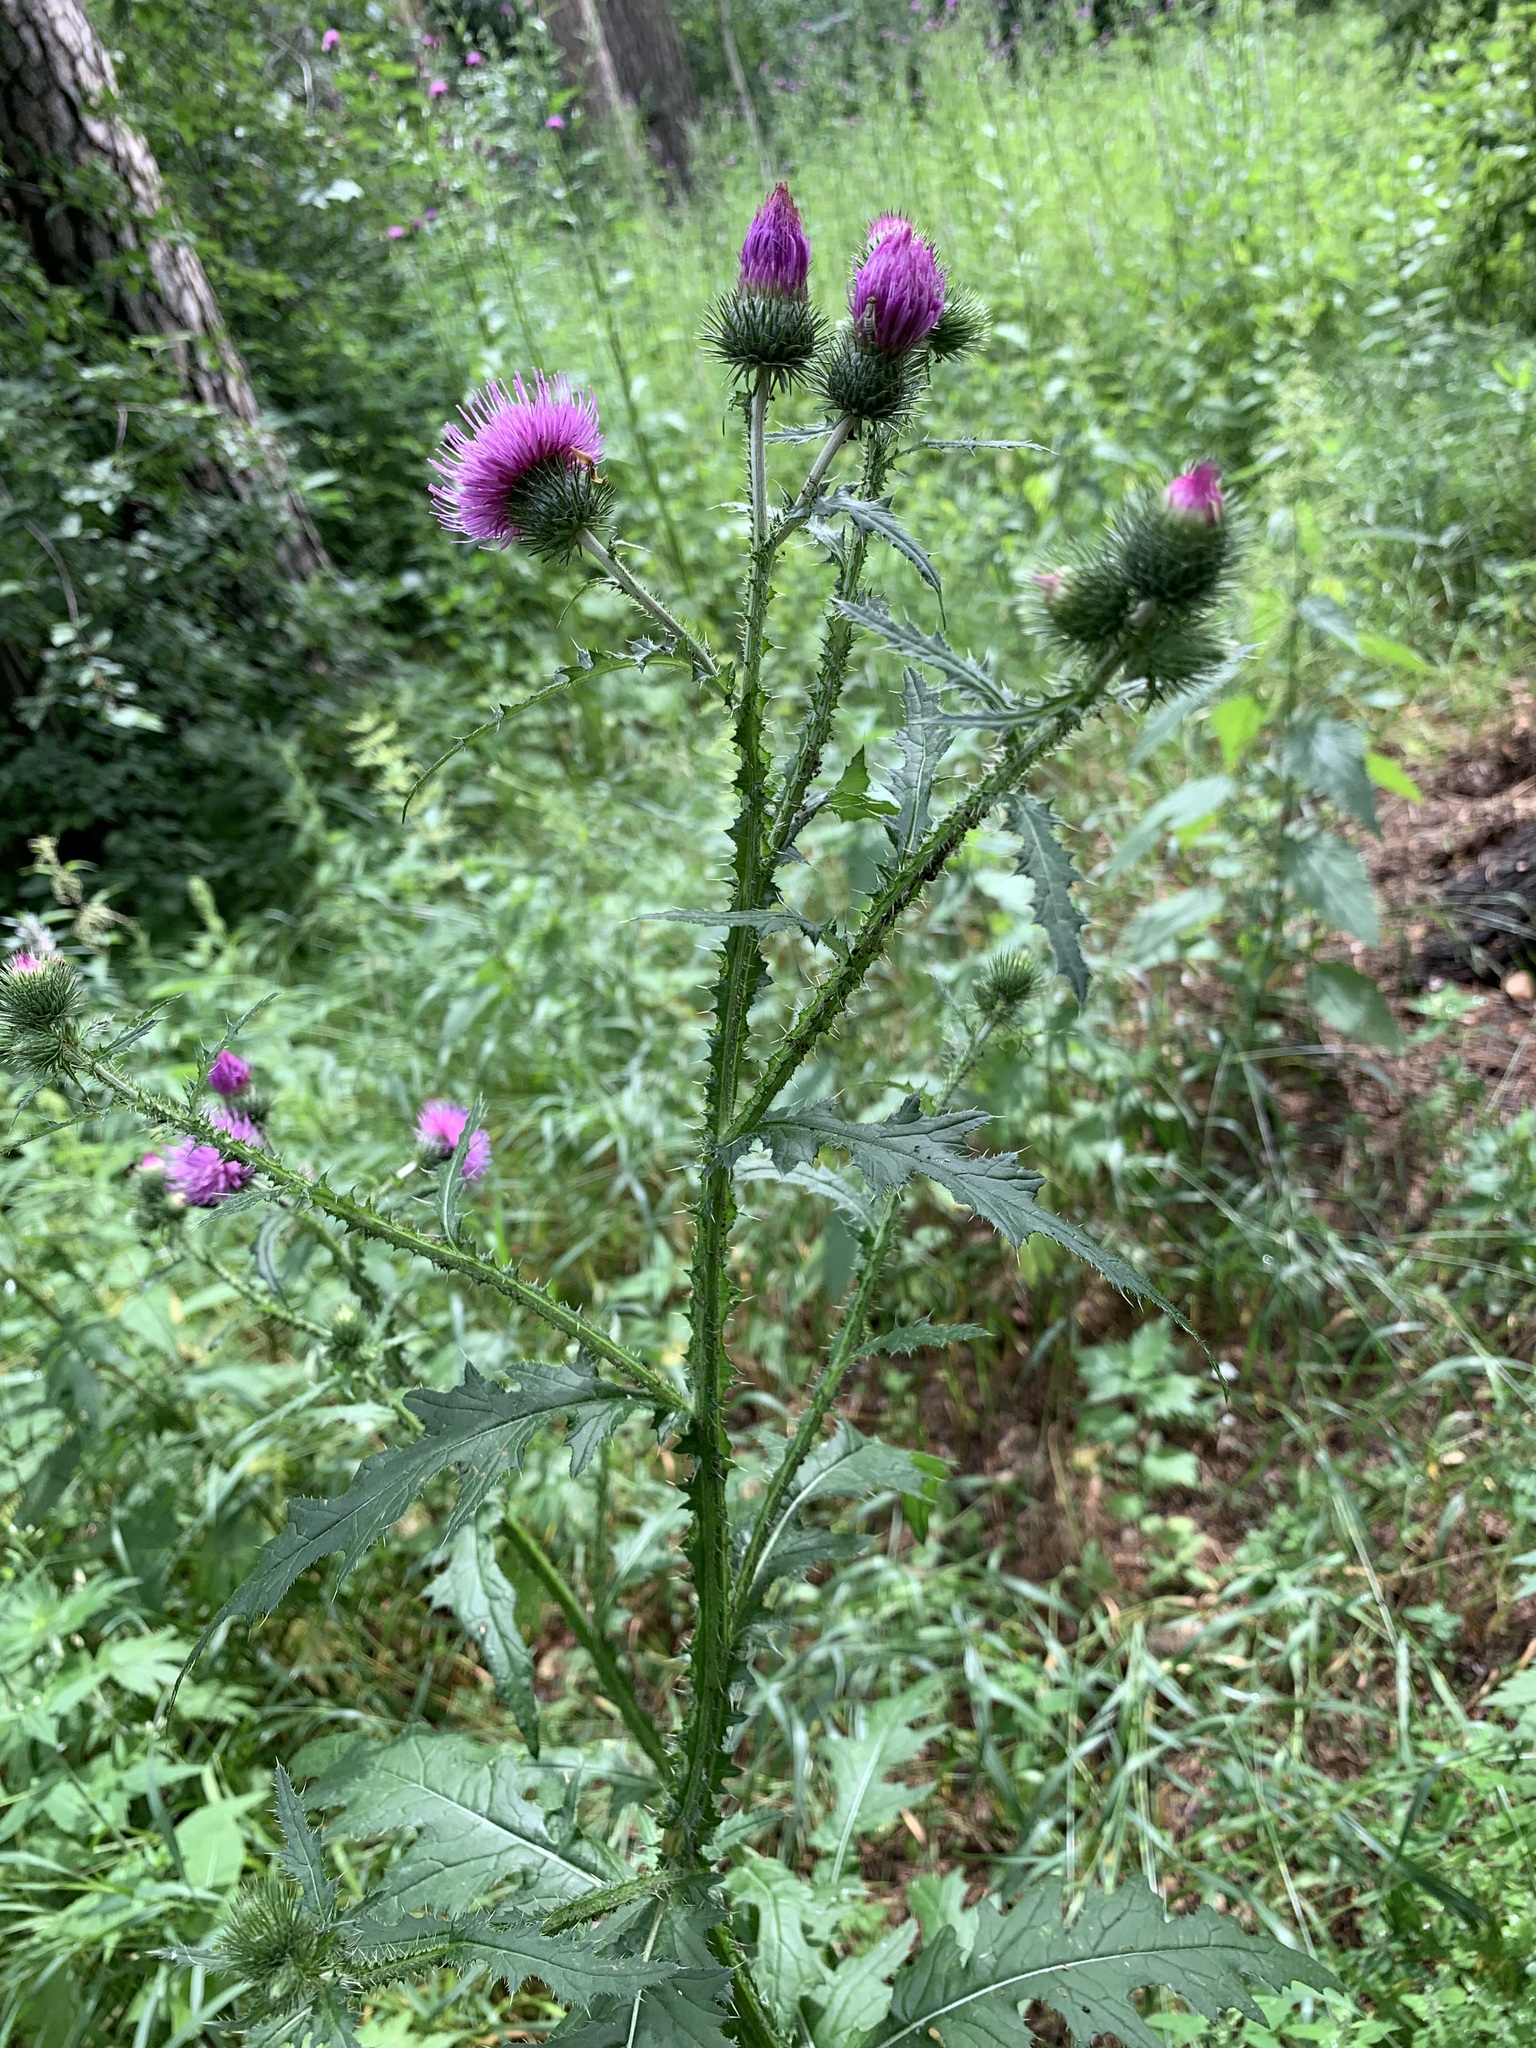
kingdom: Plantae
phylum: Tracheophyta
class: Magnoliopsida
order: Asterales
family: Asteraceae
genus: Carduus
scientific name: Carduus crispus
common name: Welted thistle
